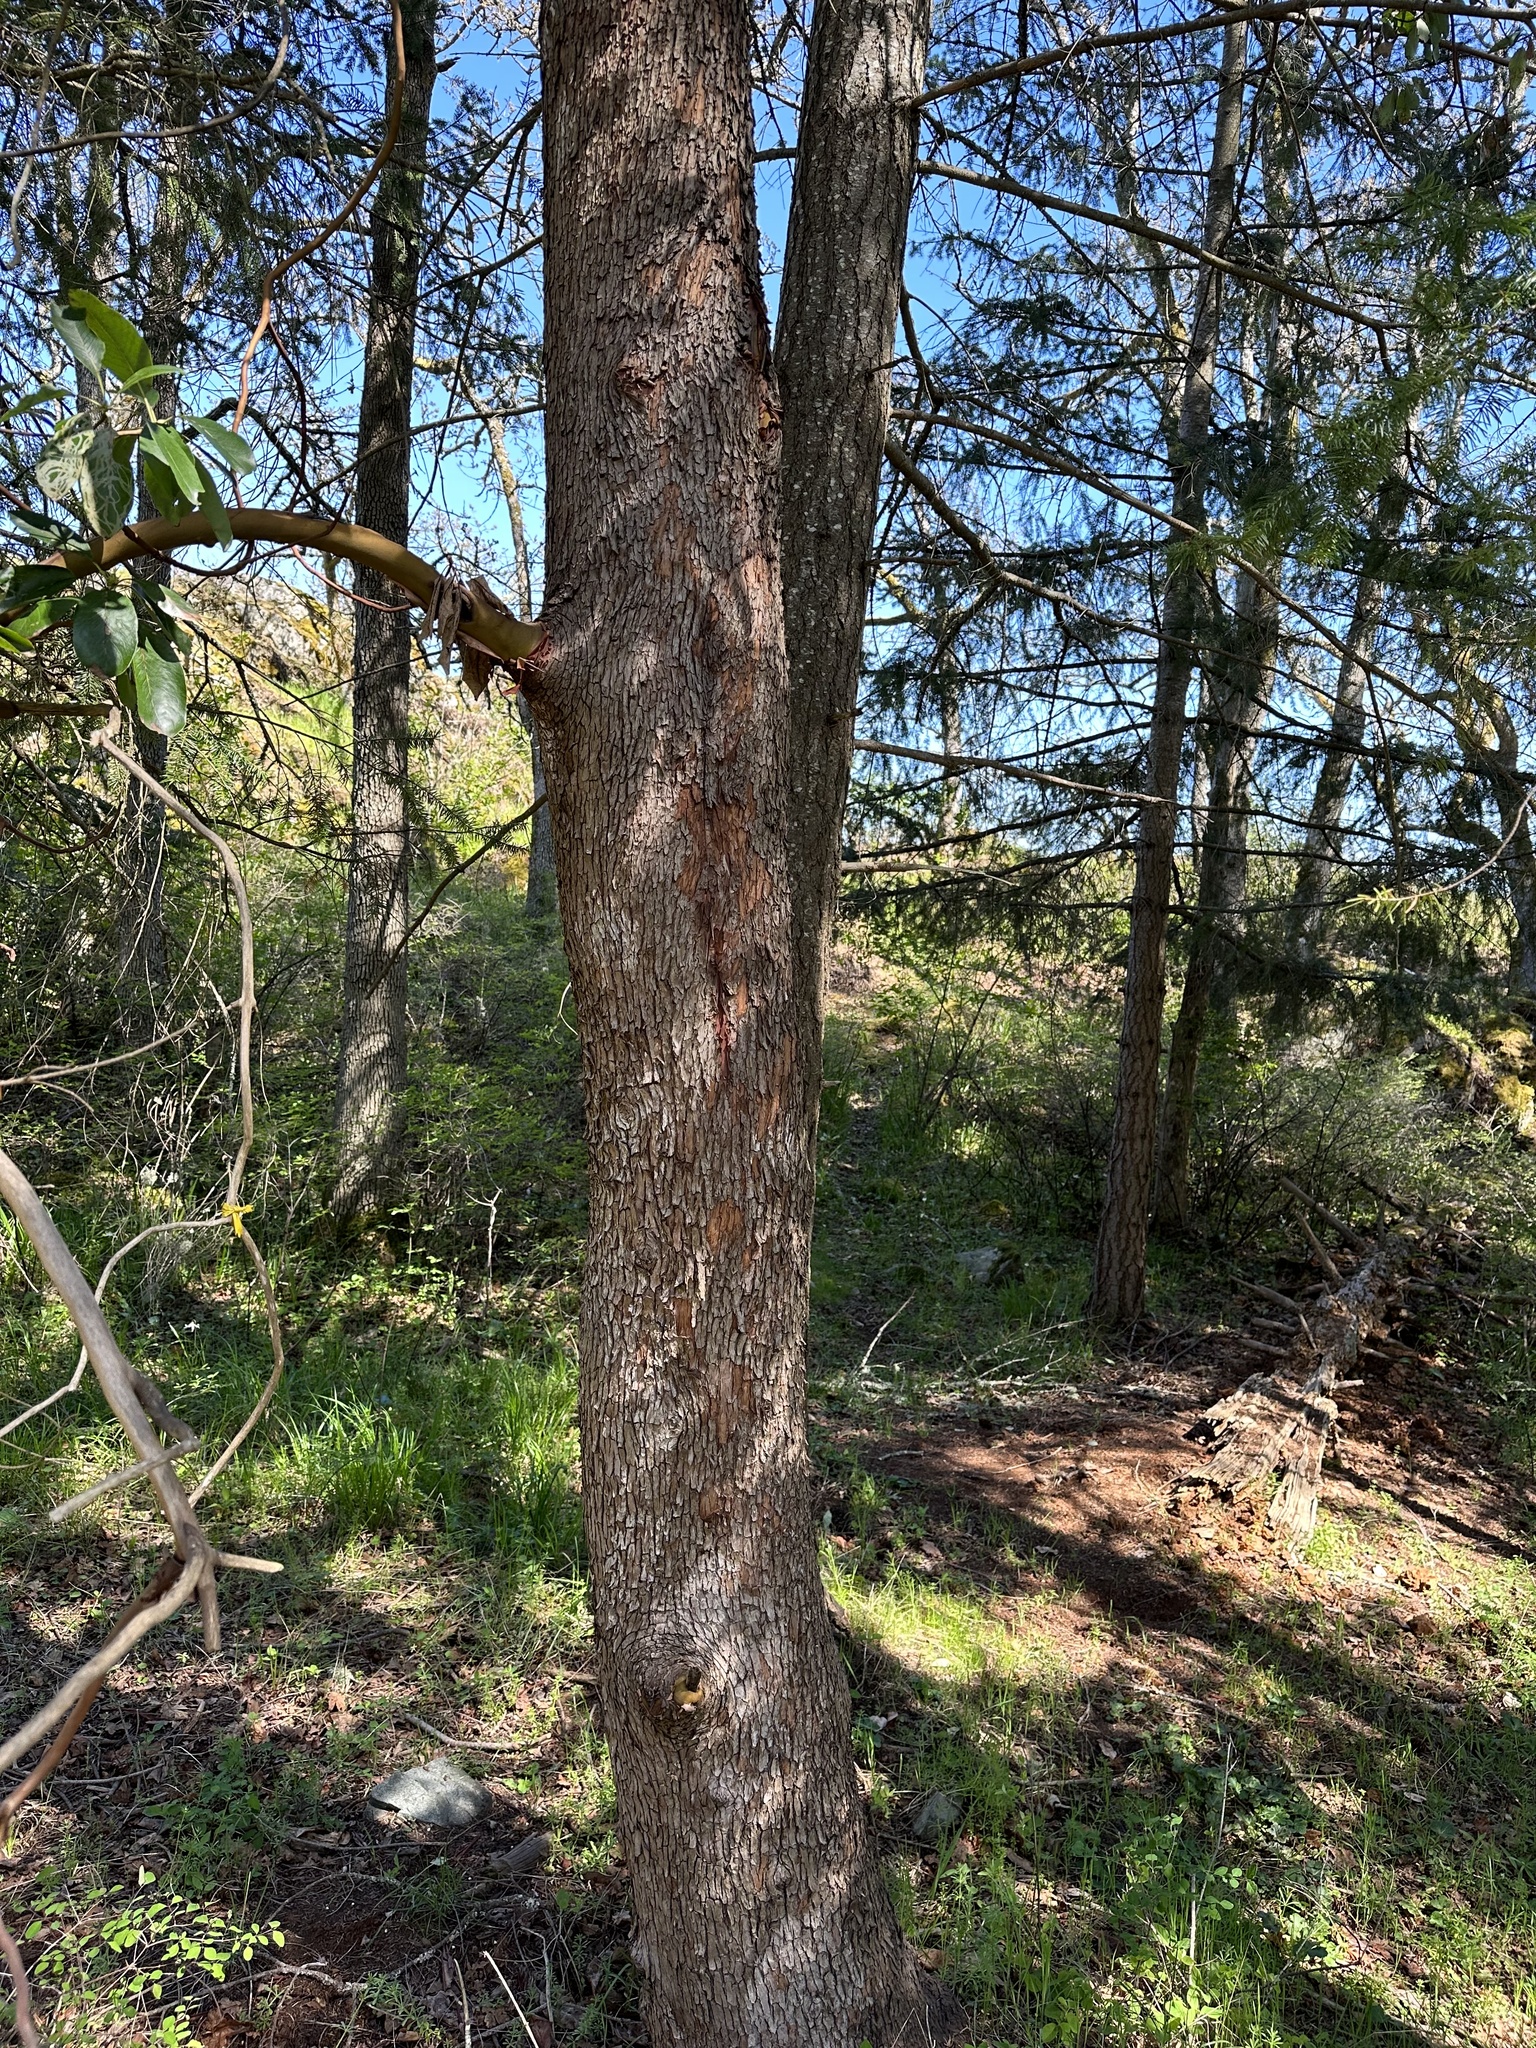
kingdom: Plantae
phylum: Tracheophyta
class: Magnoliopsida
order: Ericales
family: Ericaceae
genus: Arbutus
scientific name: Arbutus menziesii
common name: Pacific madrone
